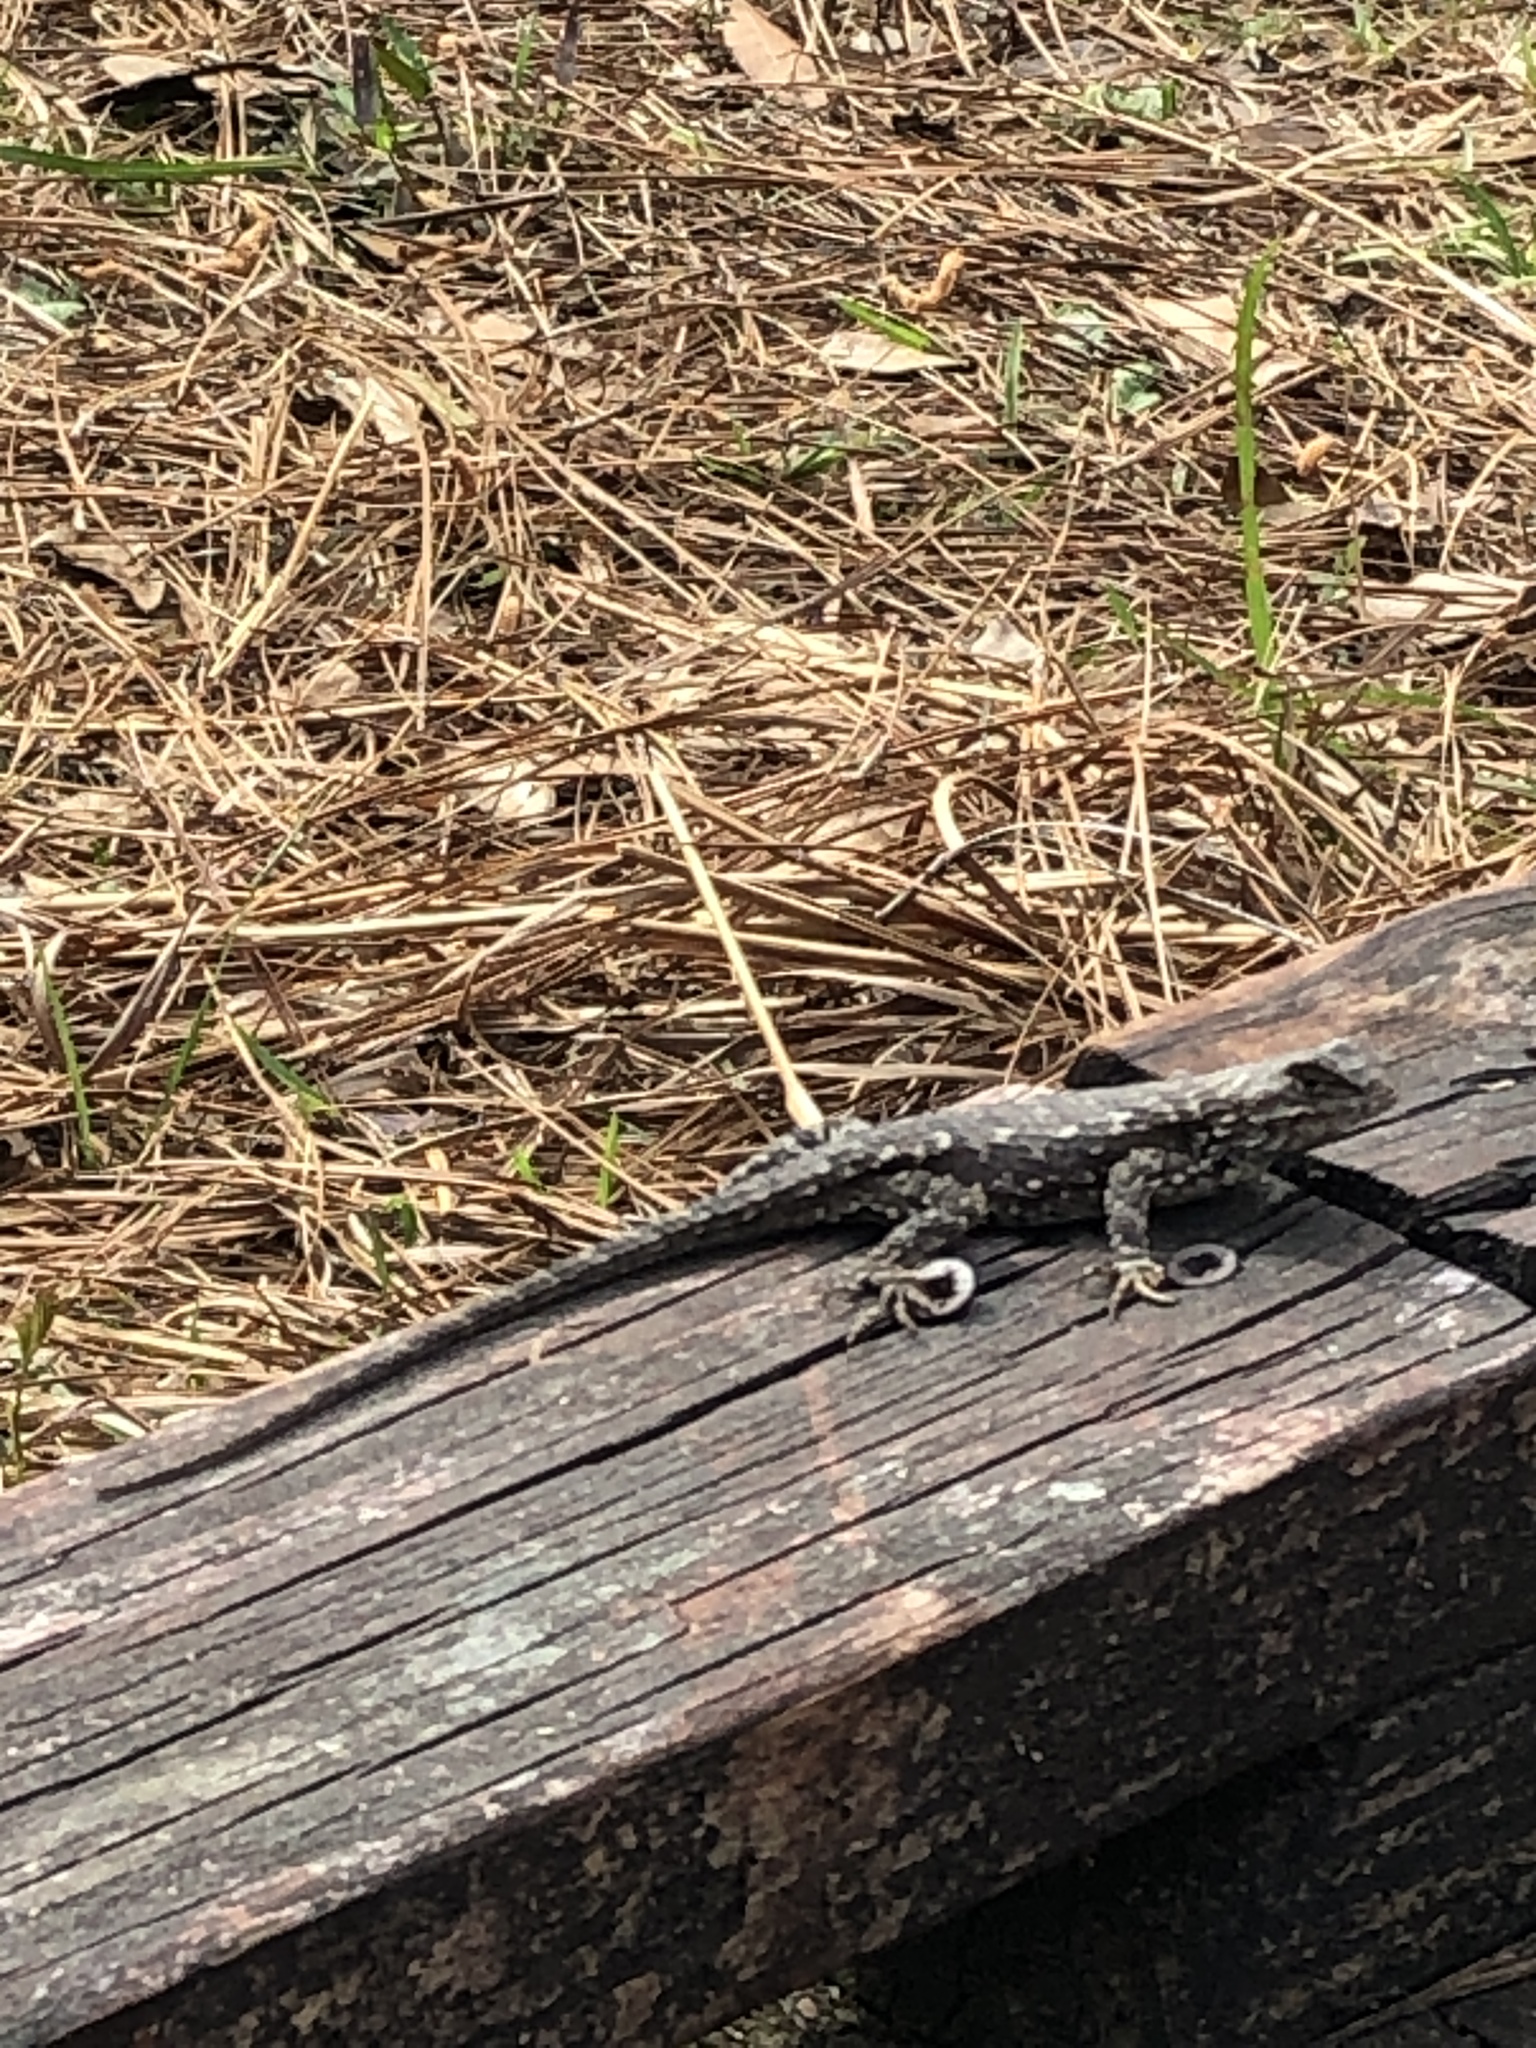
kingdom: Animalia
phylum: Chordata
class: Squamata
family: Phrynosomatidae
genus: Sceloporus
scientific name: Sceloporus undulatus
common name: Eastern fence lizard
